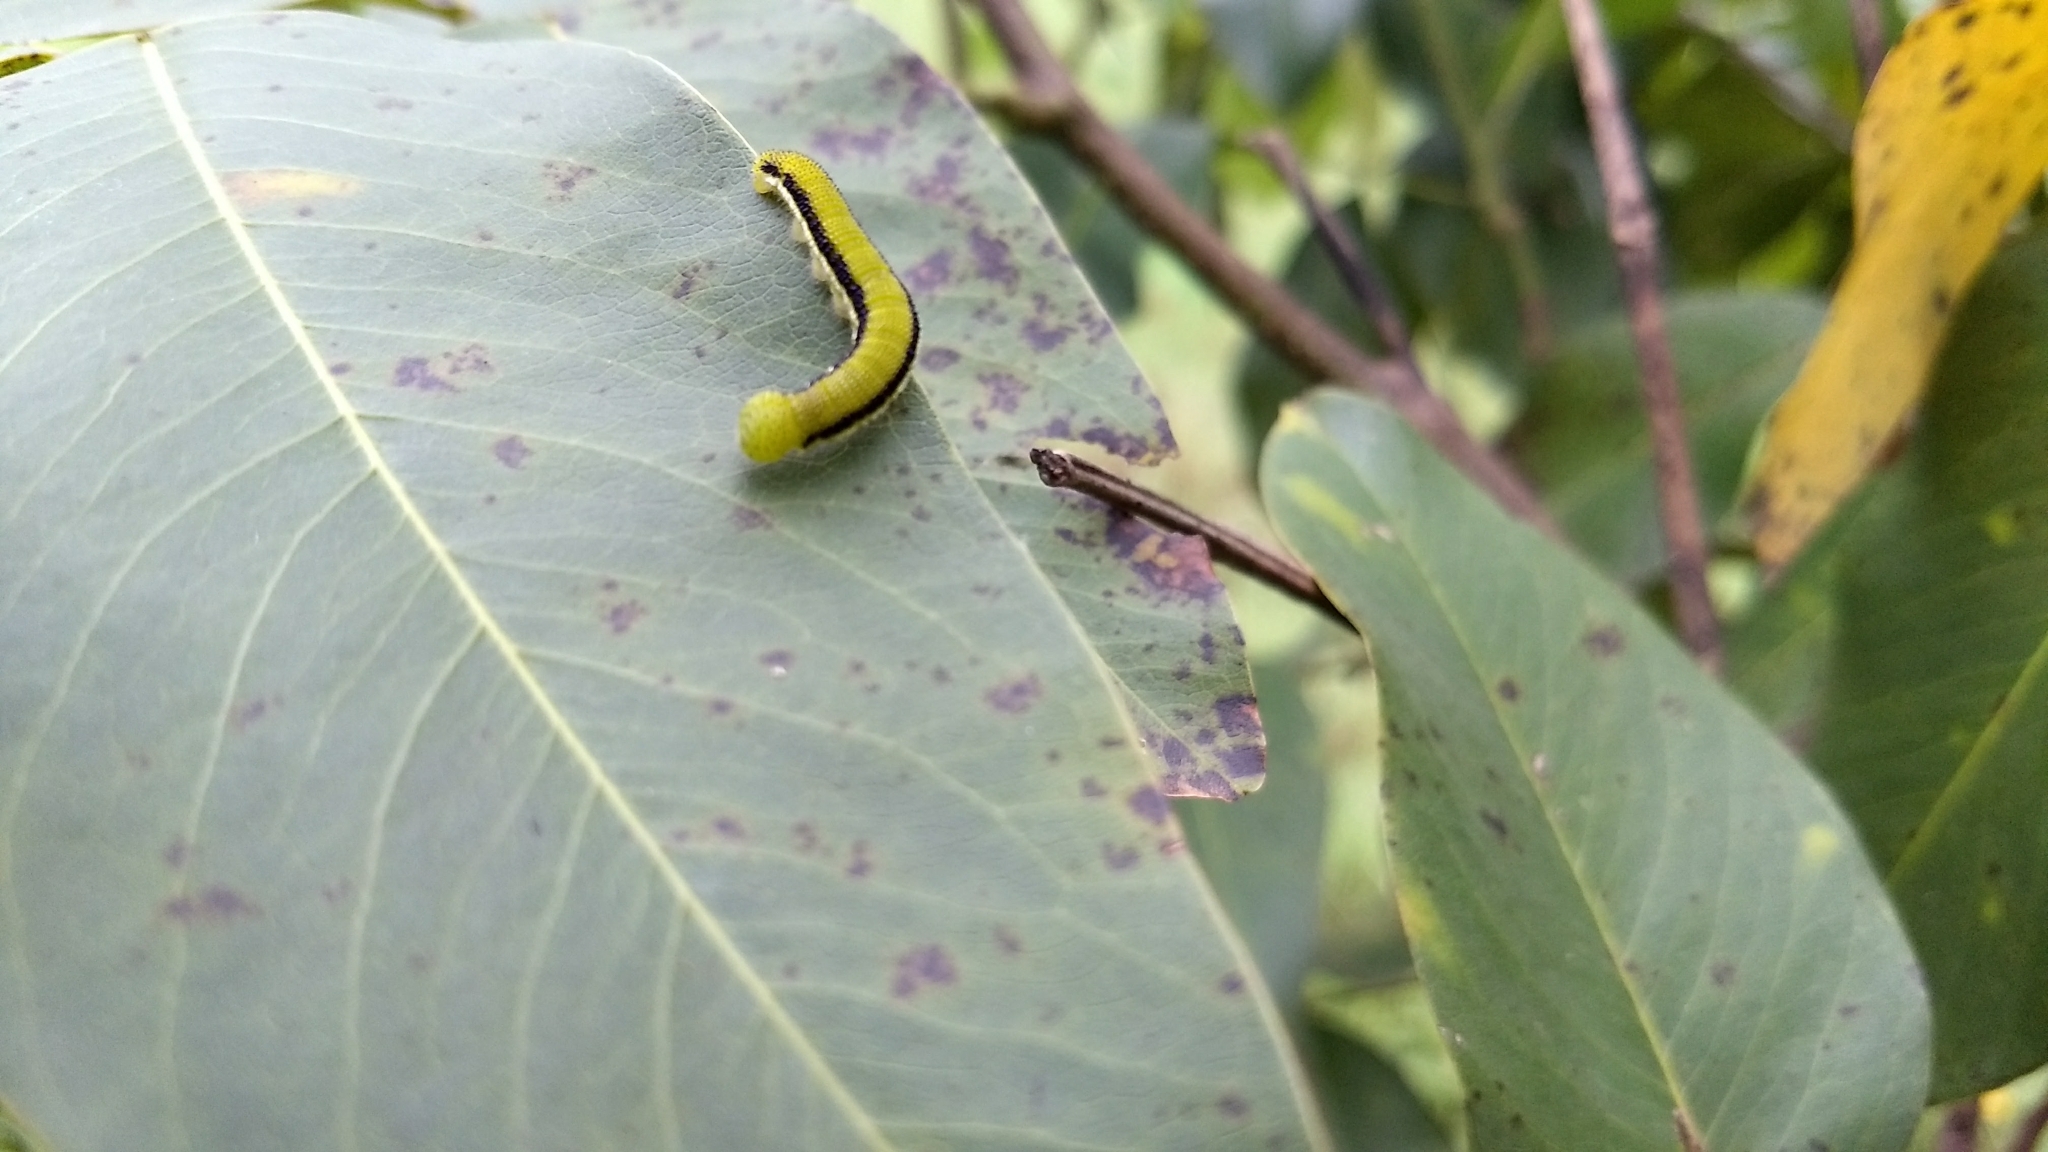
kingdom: Animalia
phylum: Arthropoda
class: Insecta
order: Lepidoptera
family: Pieridae
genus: Catopsilia
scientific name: Catopsilia pyranthe
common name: Mottled emigrant
